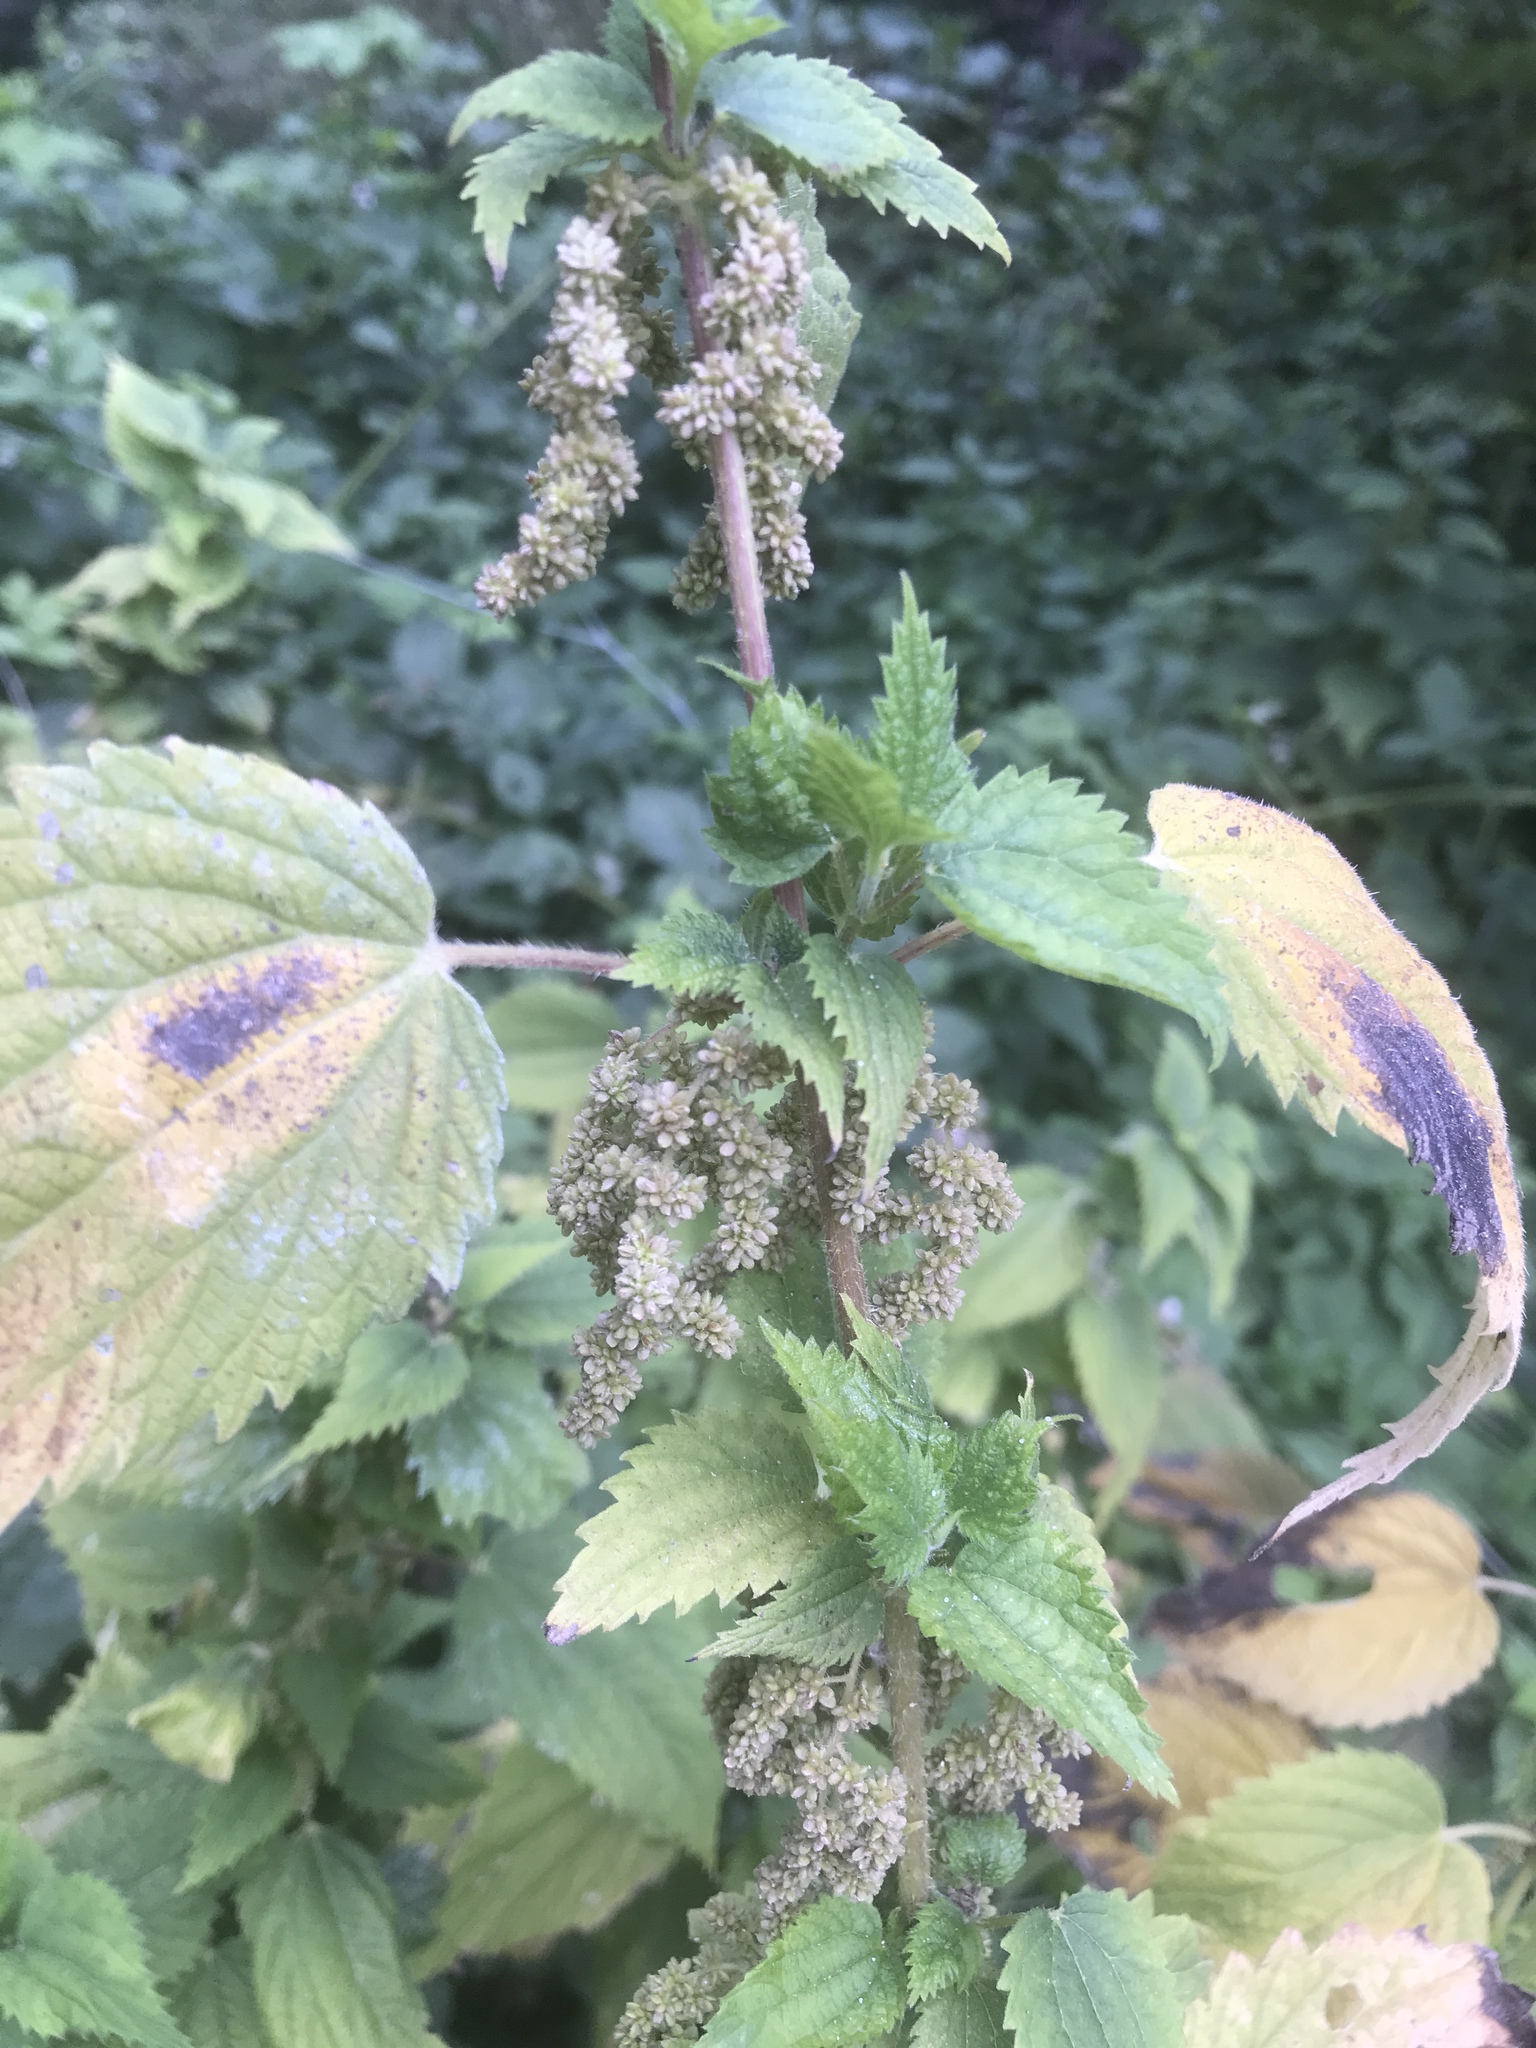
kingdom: Plantae
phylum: Tracheophyta
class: Magnoliopsida
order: Rosales
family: Urticaceae
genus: Urtica
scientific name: Urtica dioica
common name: Common nettle
